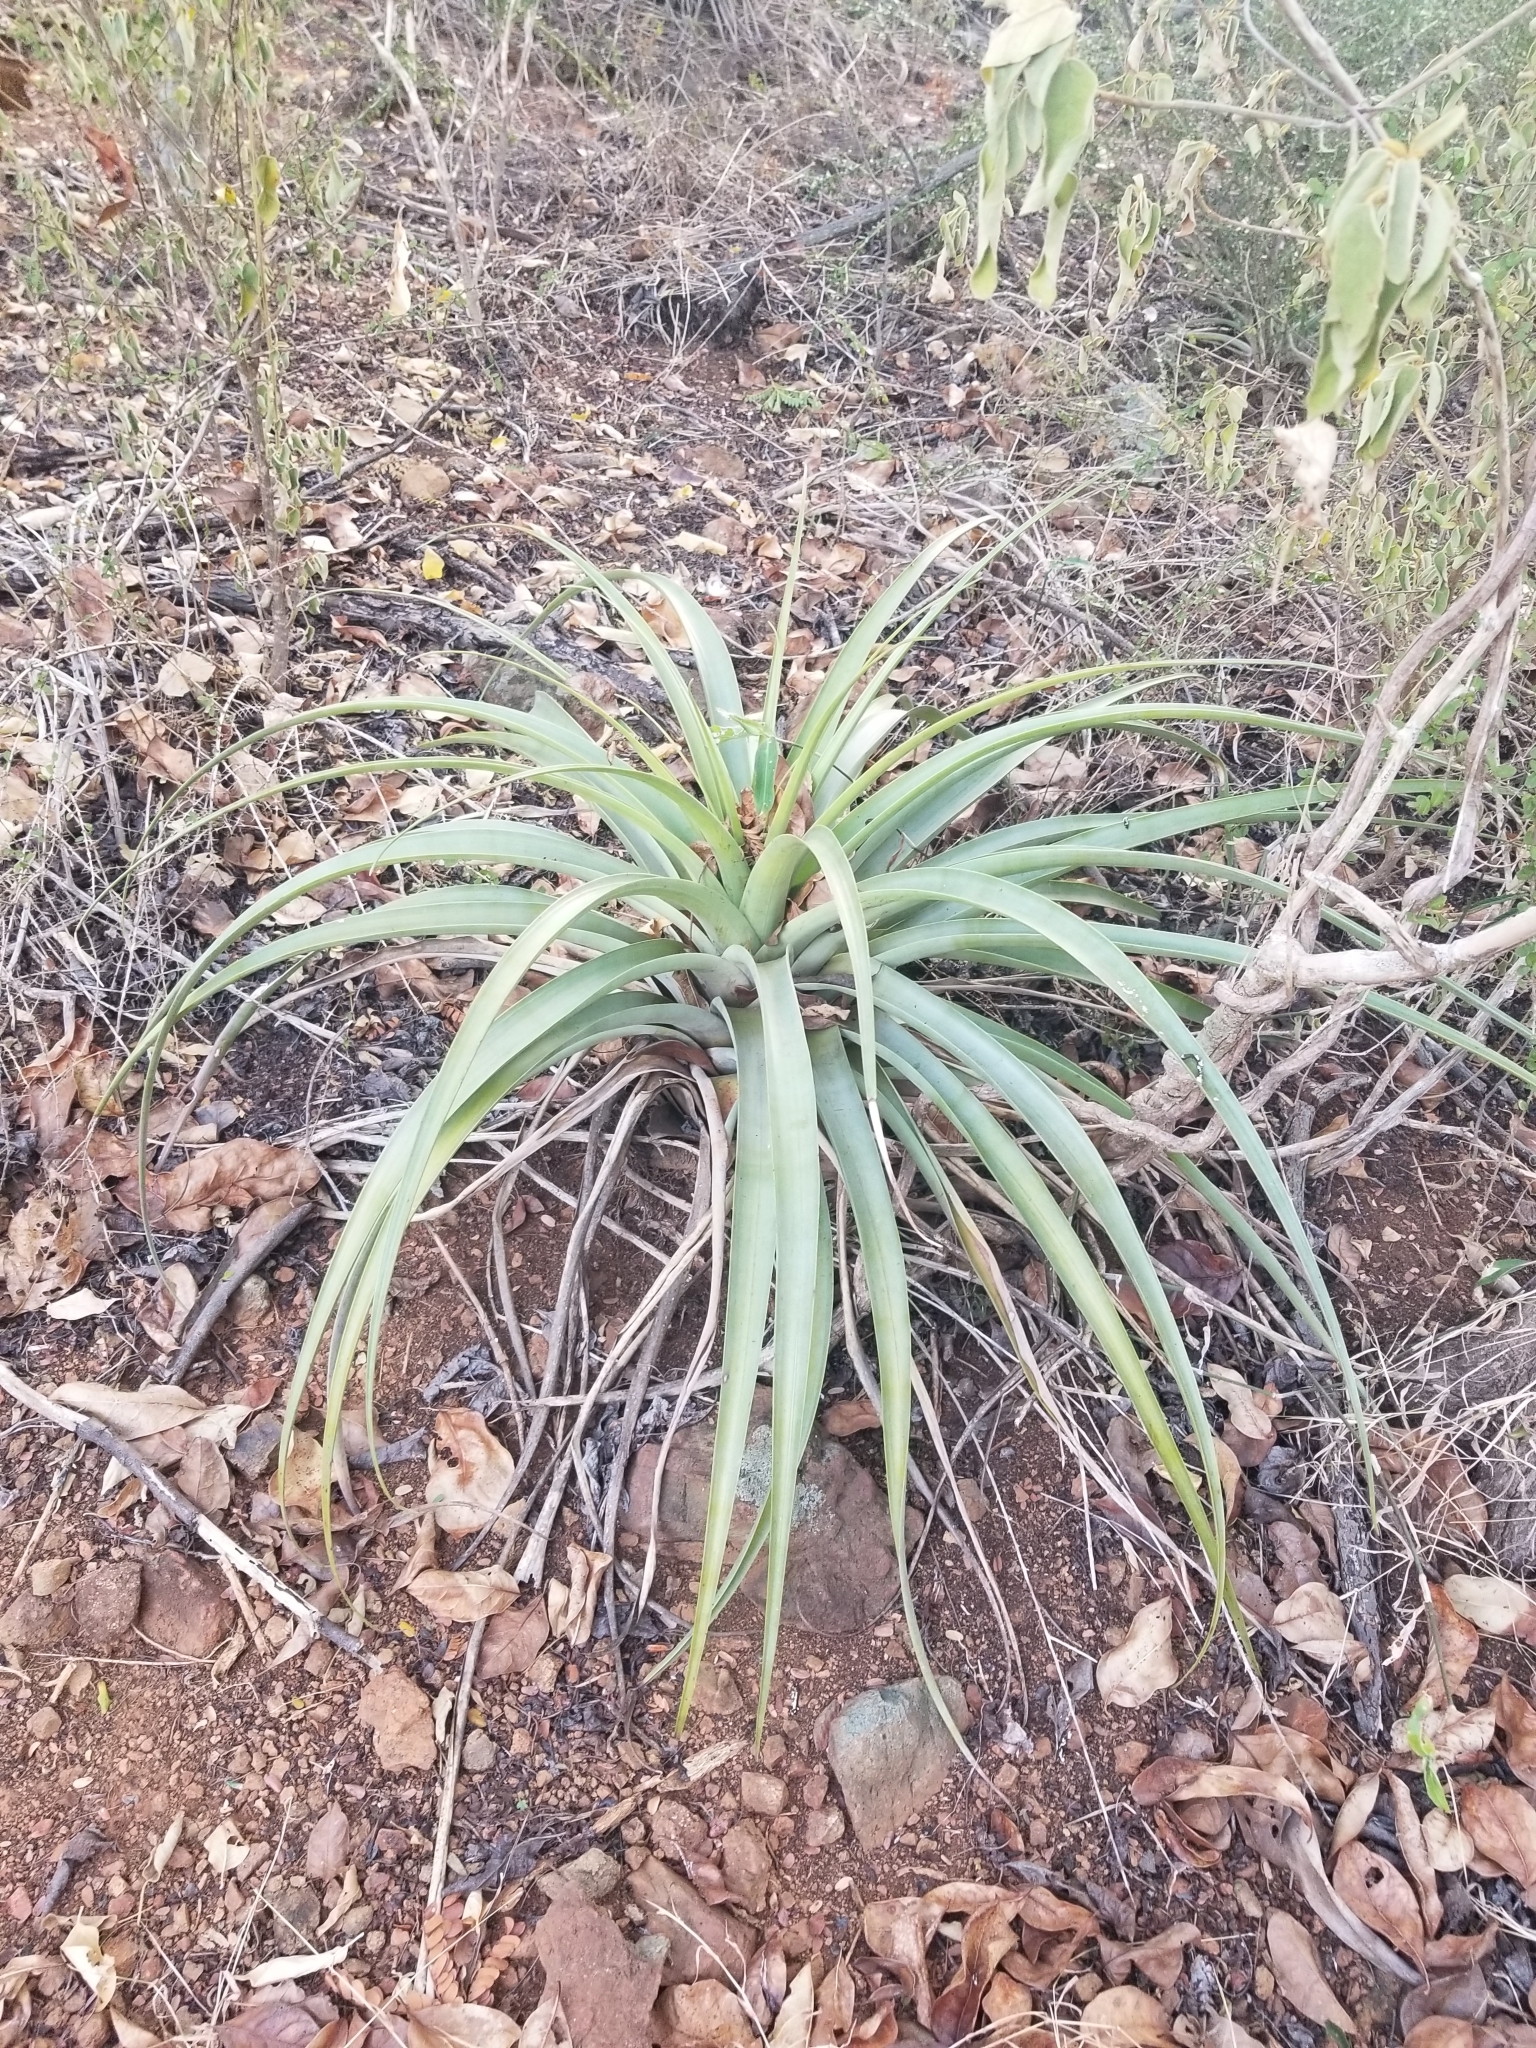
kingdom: Plantae
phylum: Tracheophyta
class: Liliopsida
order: Poales
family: Bromeliaceae
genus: Tillandsia
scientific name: Tillandsia utriculata
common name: Wild pine
